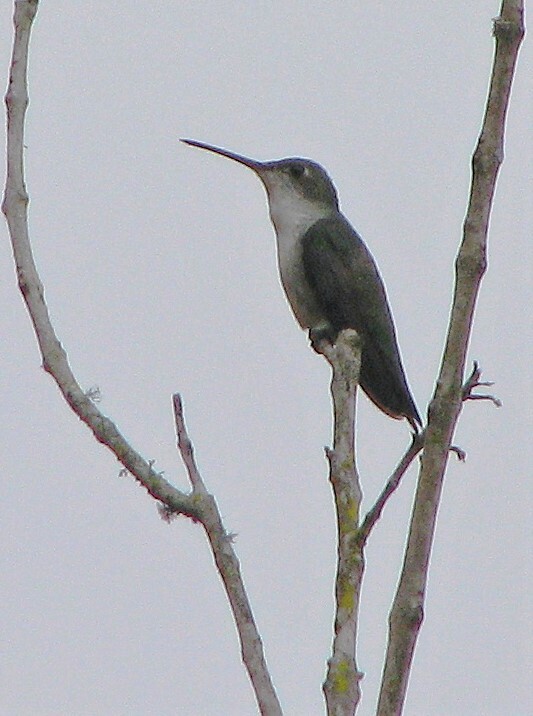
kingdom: Animalia
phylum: Chordata
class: Aves
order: Apodiformes
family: Trochilidae
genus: Elliotomyia
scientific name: Elliotomyia chionogaster
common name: White-bellied hummingbird
